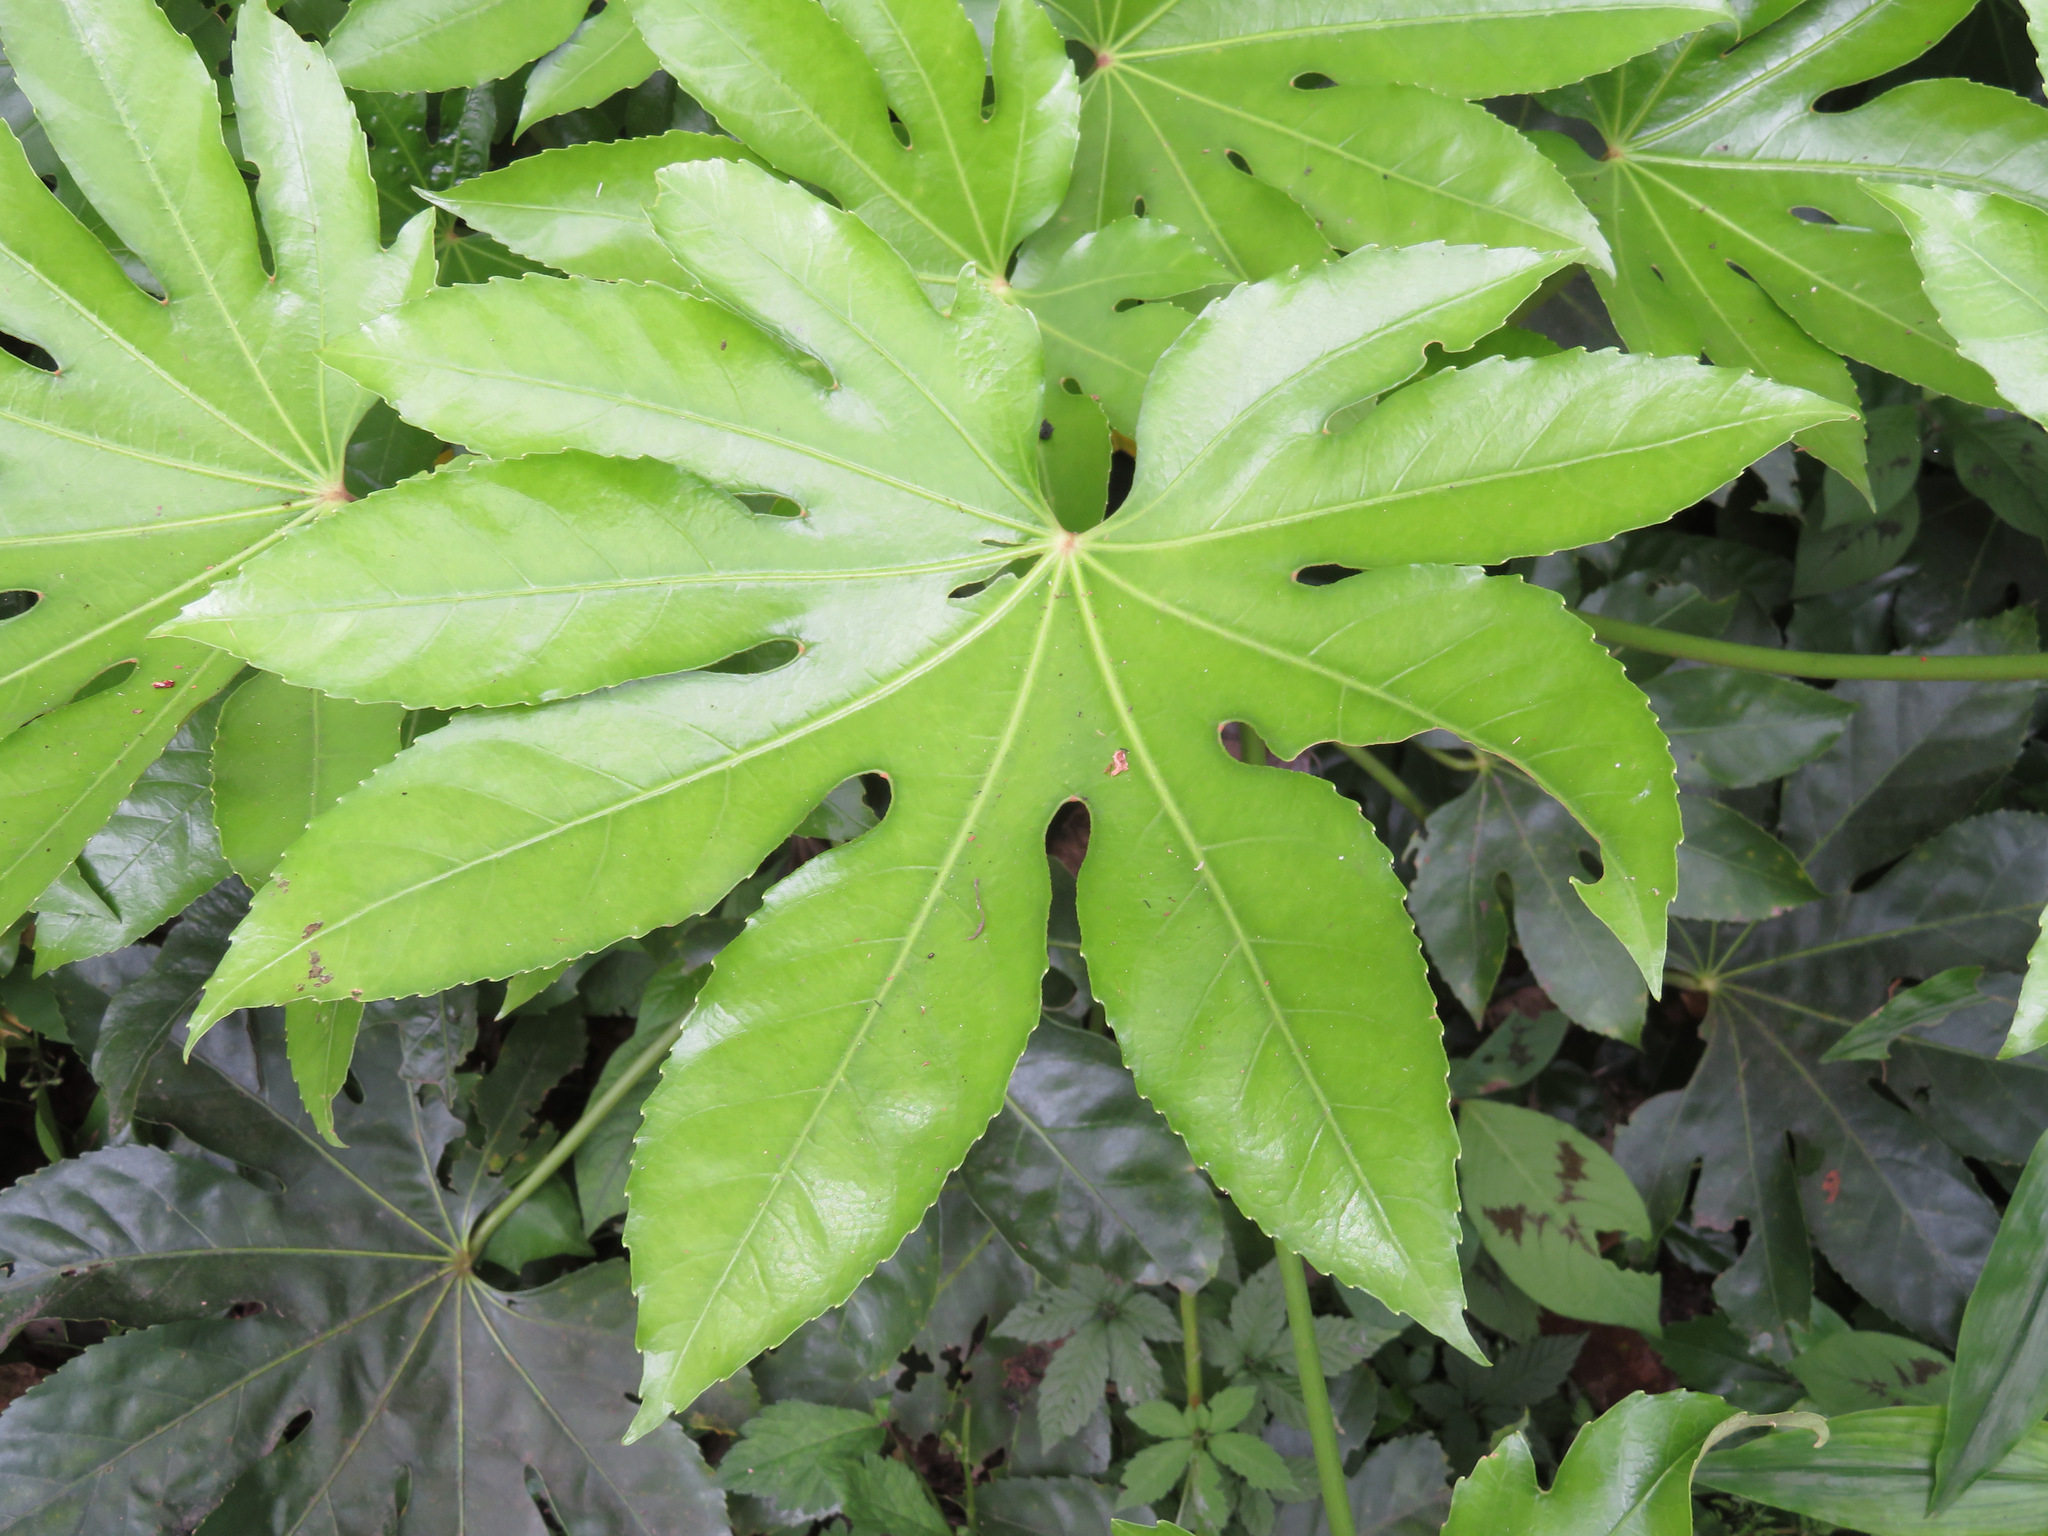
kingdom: Plantae
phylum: Tracheophyta
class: Magnoliopsida
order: Apiales
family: Araliaceae
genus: Fatsia
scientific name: Fatsia japonica
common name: Fatsia
